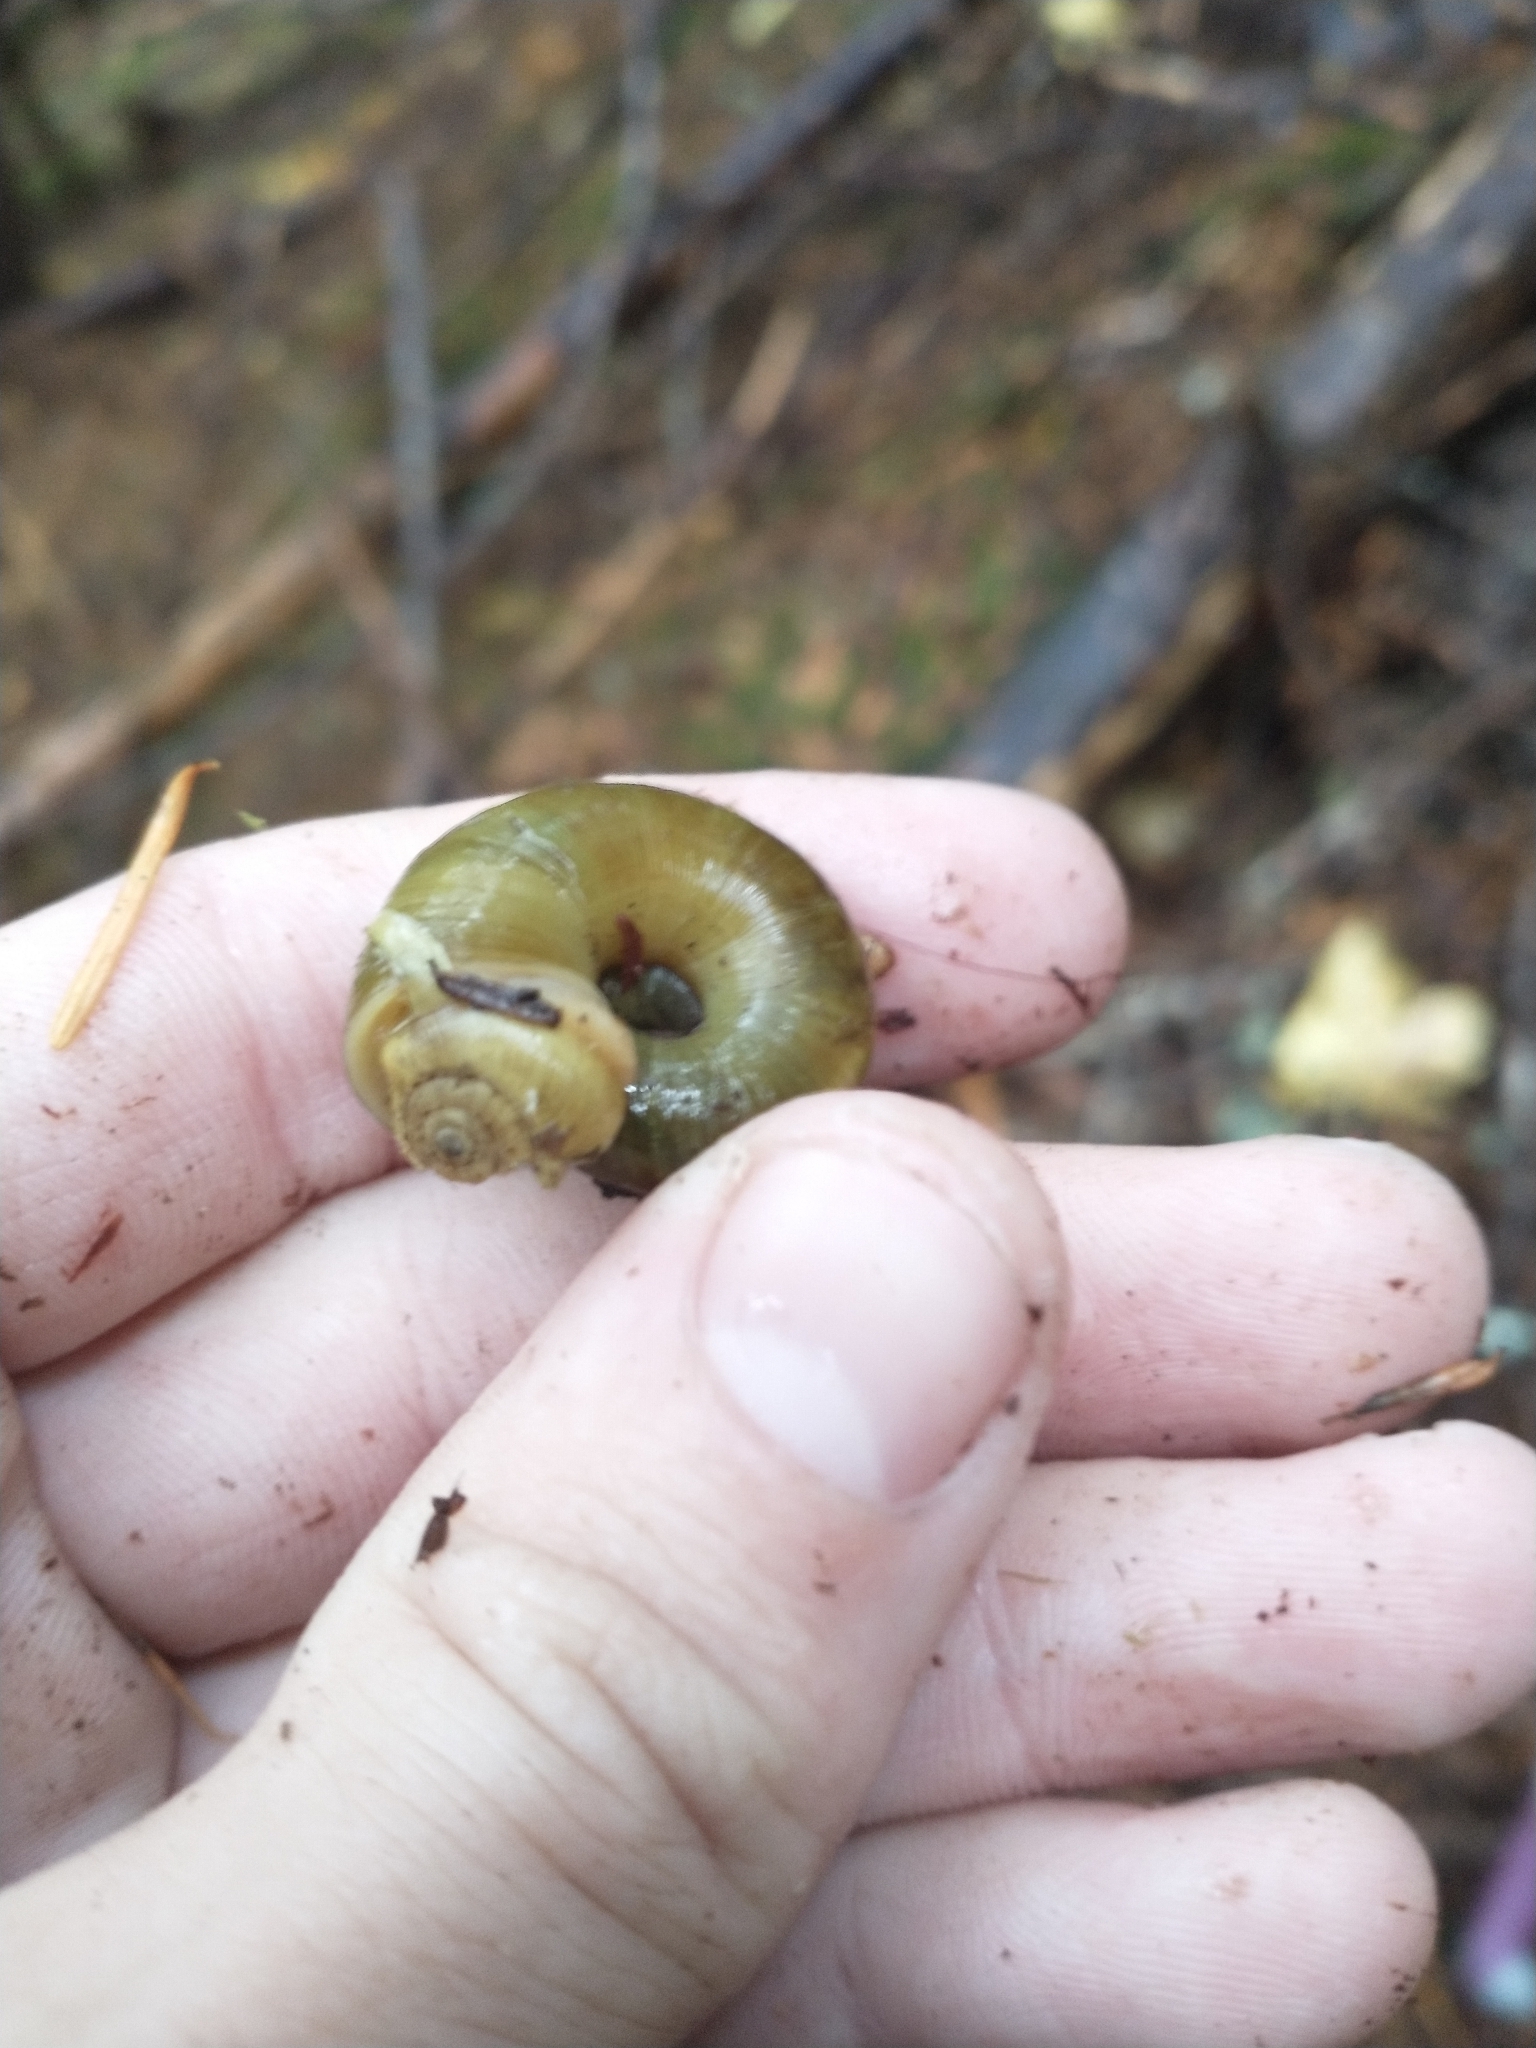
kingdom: Animalia
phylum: Mollusca
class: Gastropoda
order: Stylommatophora
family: Haplotrematidae
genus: Haplotrema
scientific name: Haplotrema vancouverense
